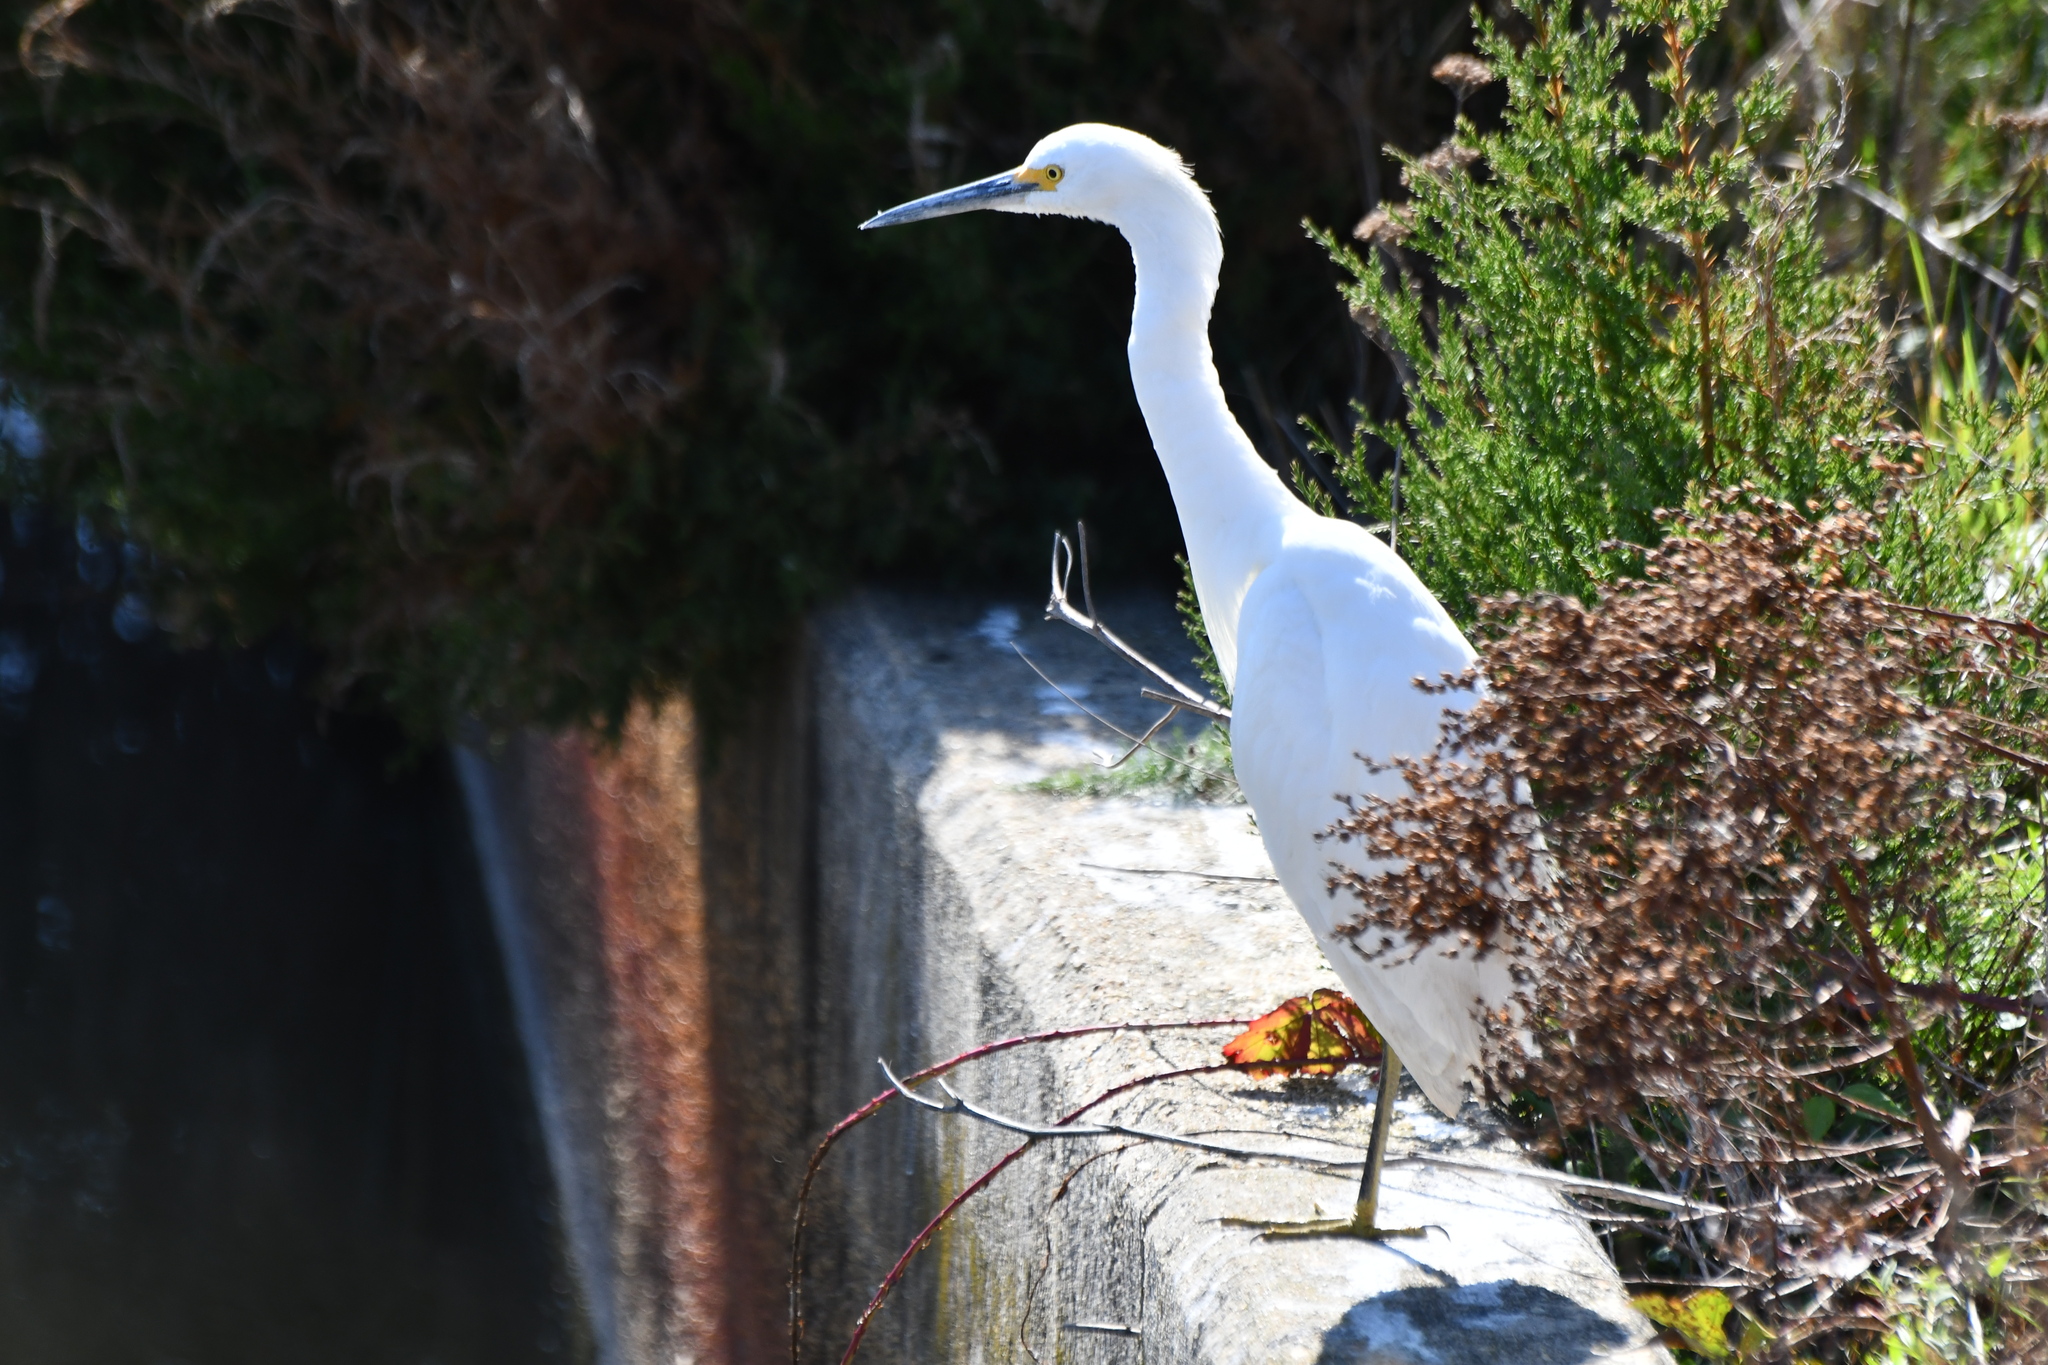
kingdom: Animalia
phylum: Chordata
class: Aves
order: Pelecaniformes
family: Ardeidae
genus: Egretta
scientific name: Egretta thula
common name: Snowy egret
